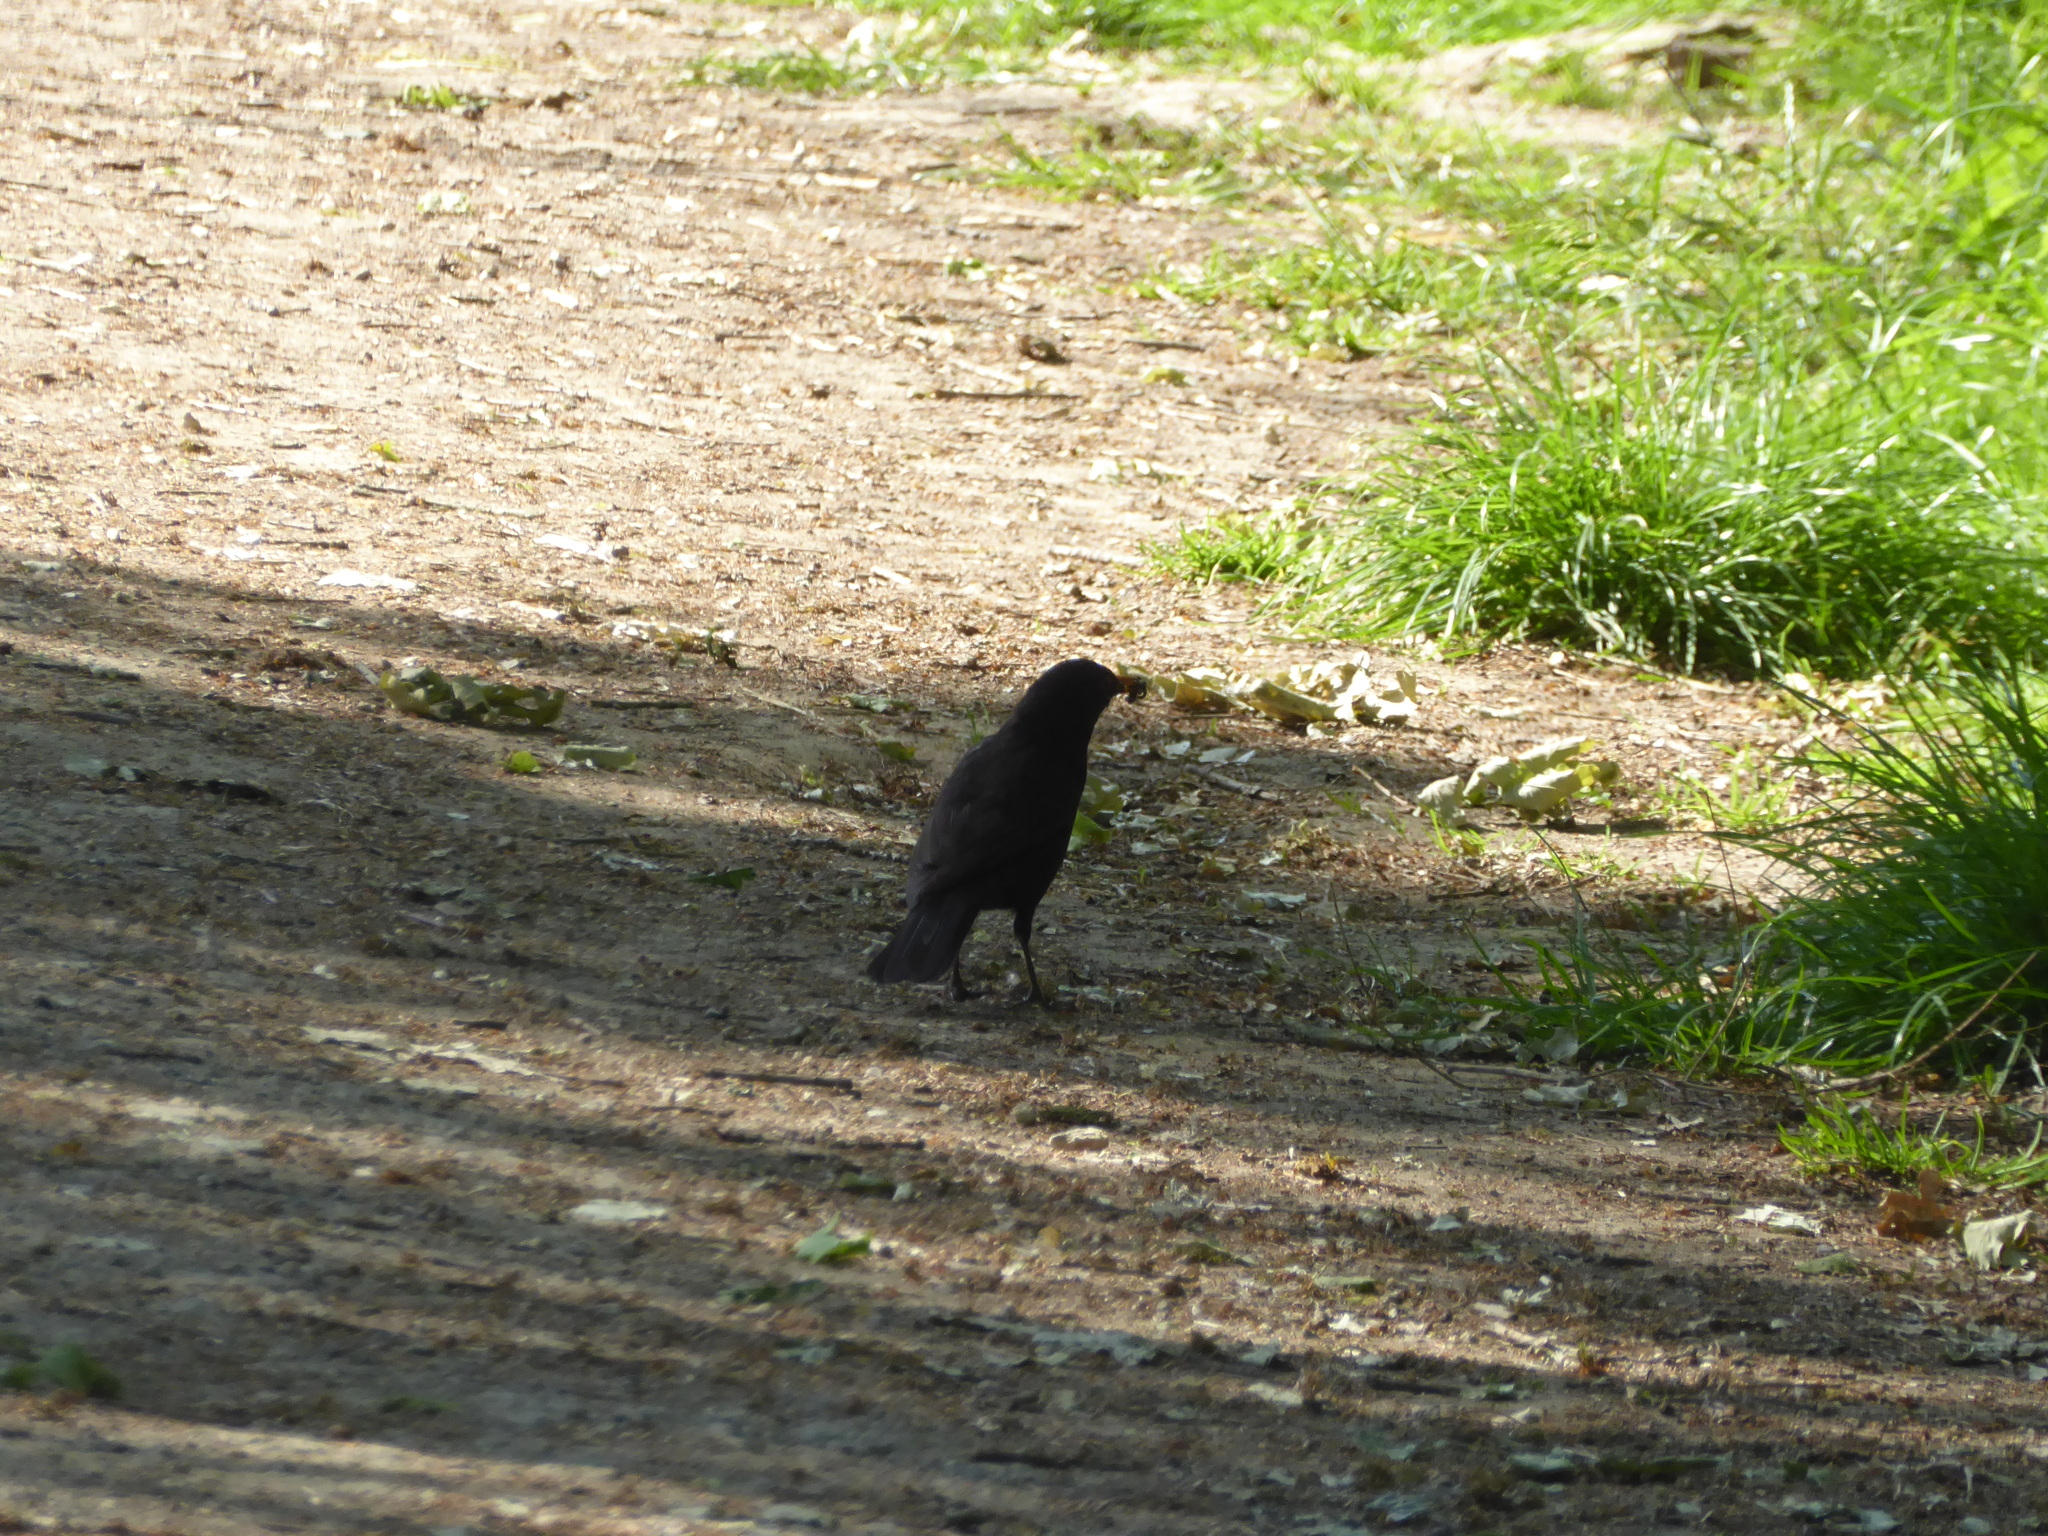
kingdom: Animalia
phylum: Chordata
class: Aves
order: Passeriformes
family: Turdidae
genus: Turdus
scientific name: Turdus merula
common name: Common blackbird
